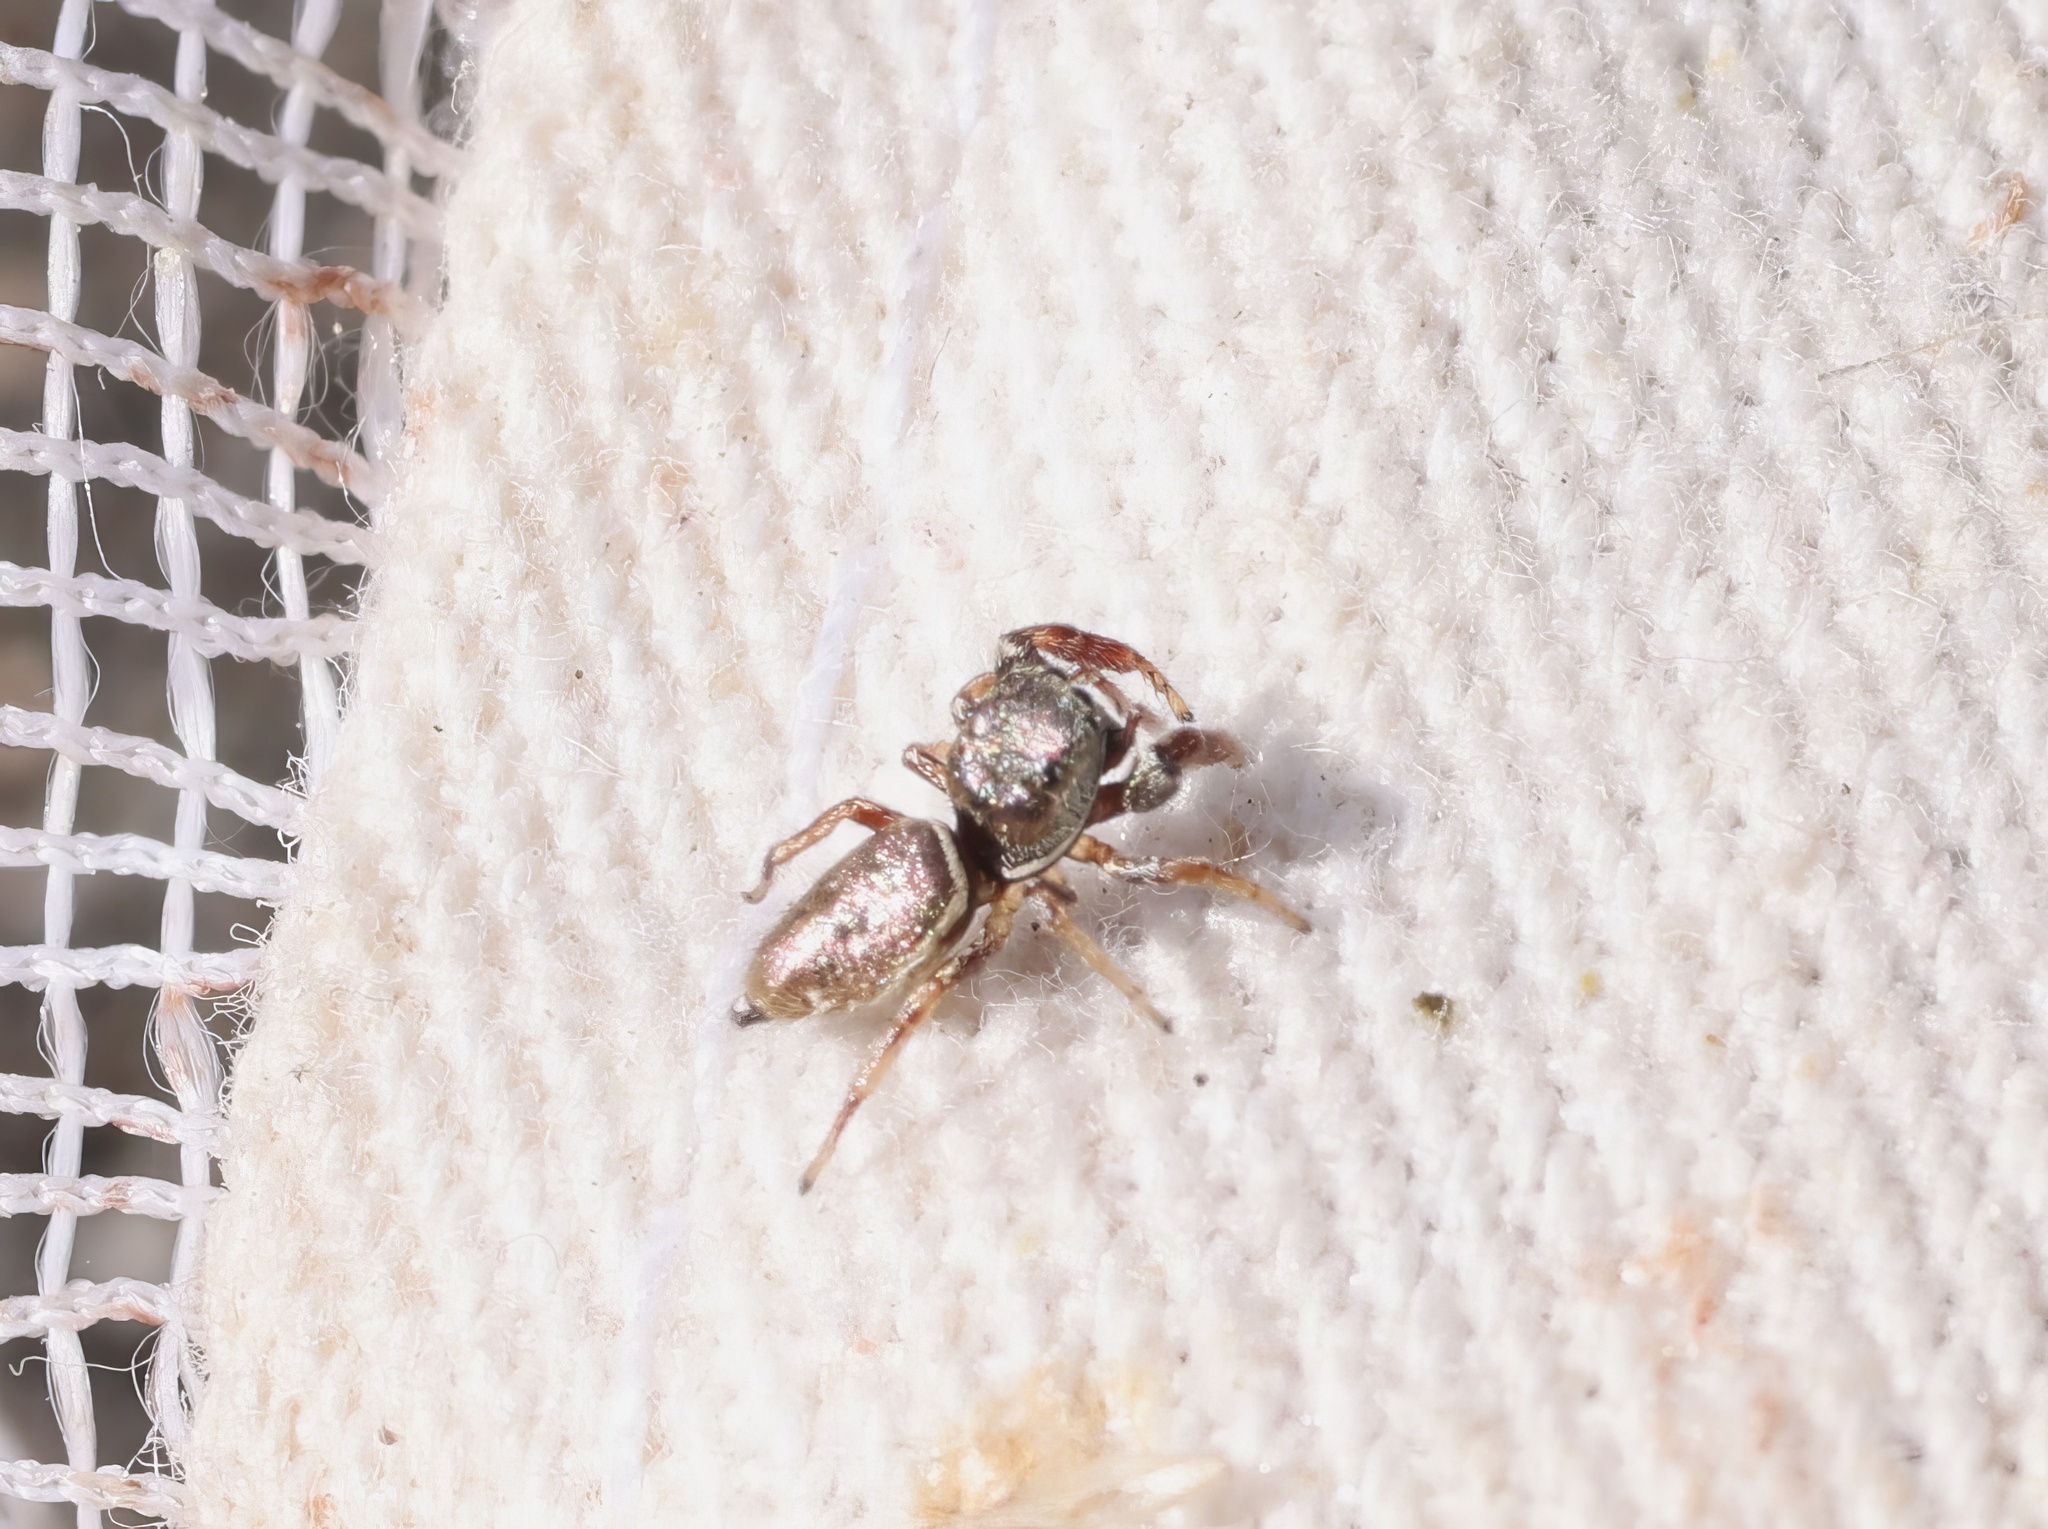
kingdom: Animalia
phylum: Arthropoda
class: Arachnida
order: Araneae
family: Salticidae
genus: Sassacus
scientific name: Sassacus vitis
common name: Jumping spiders
